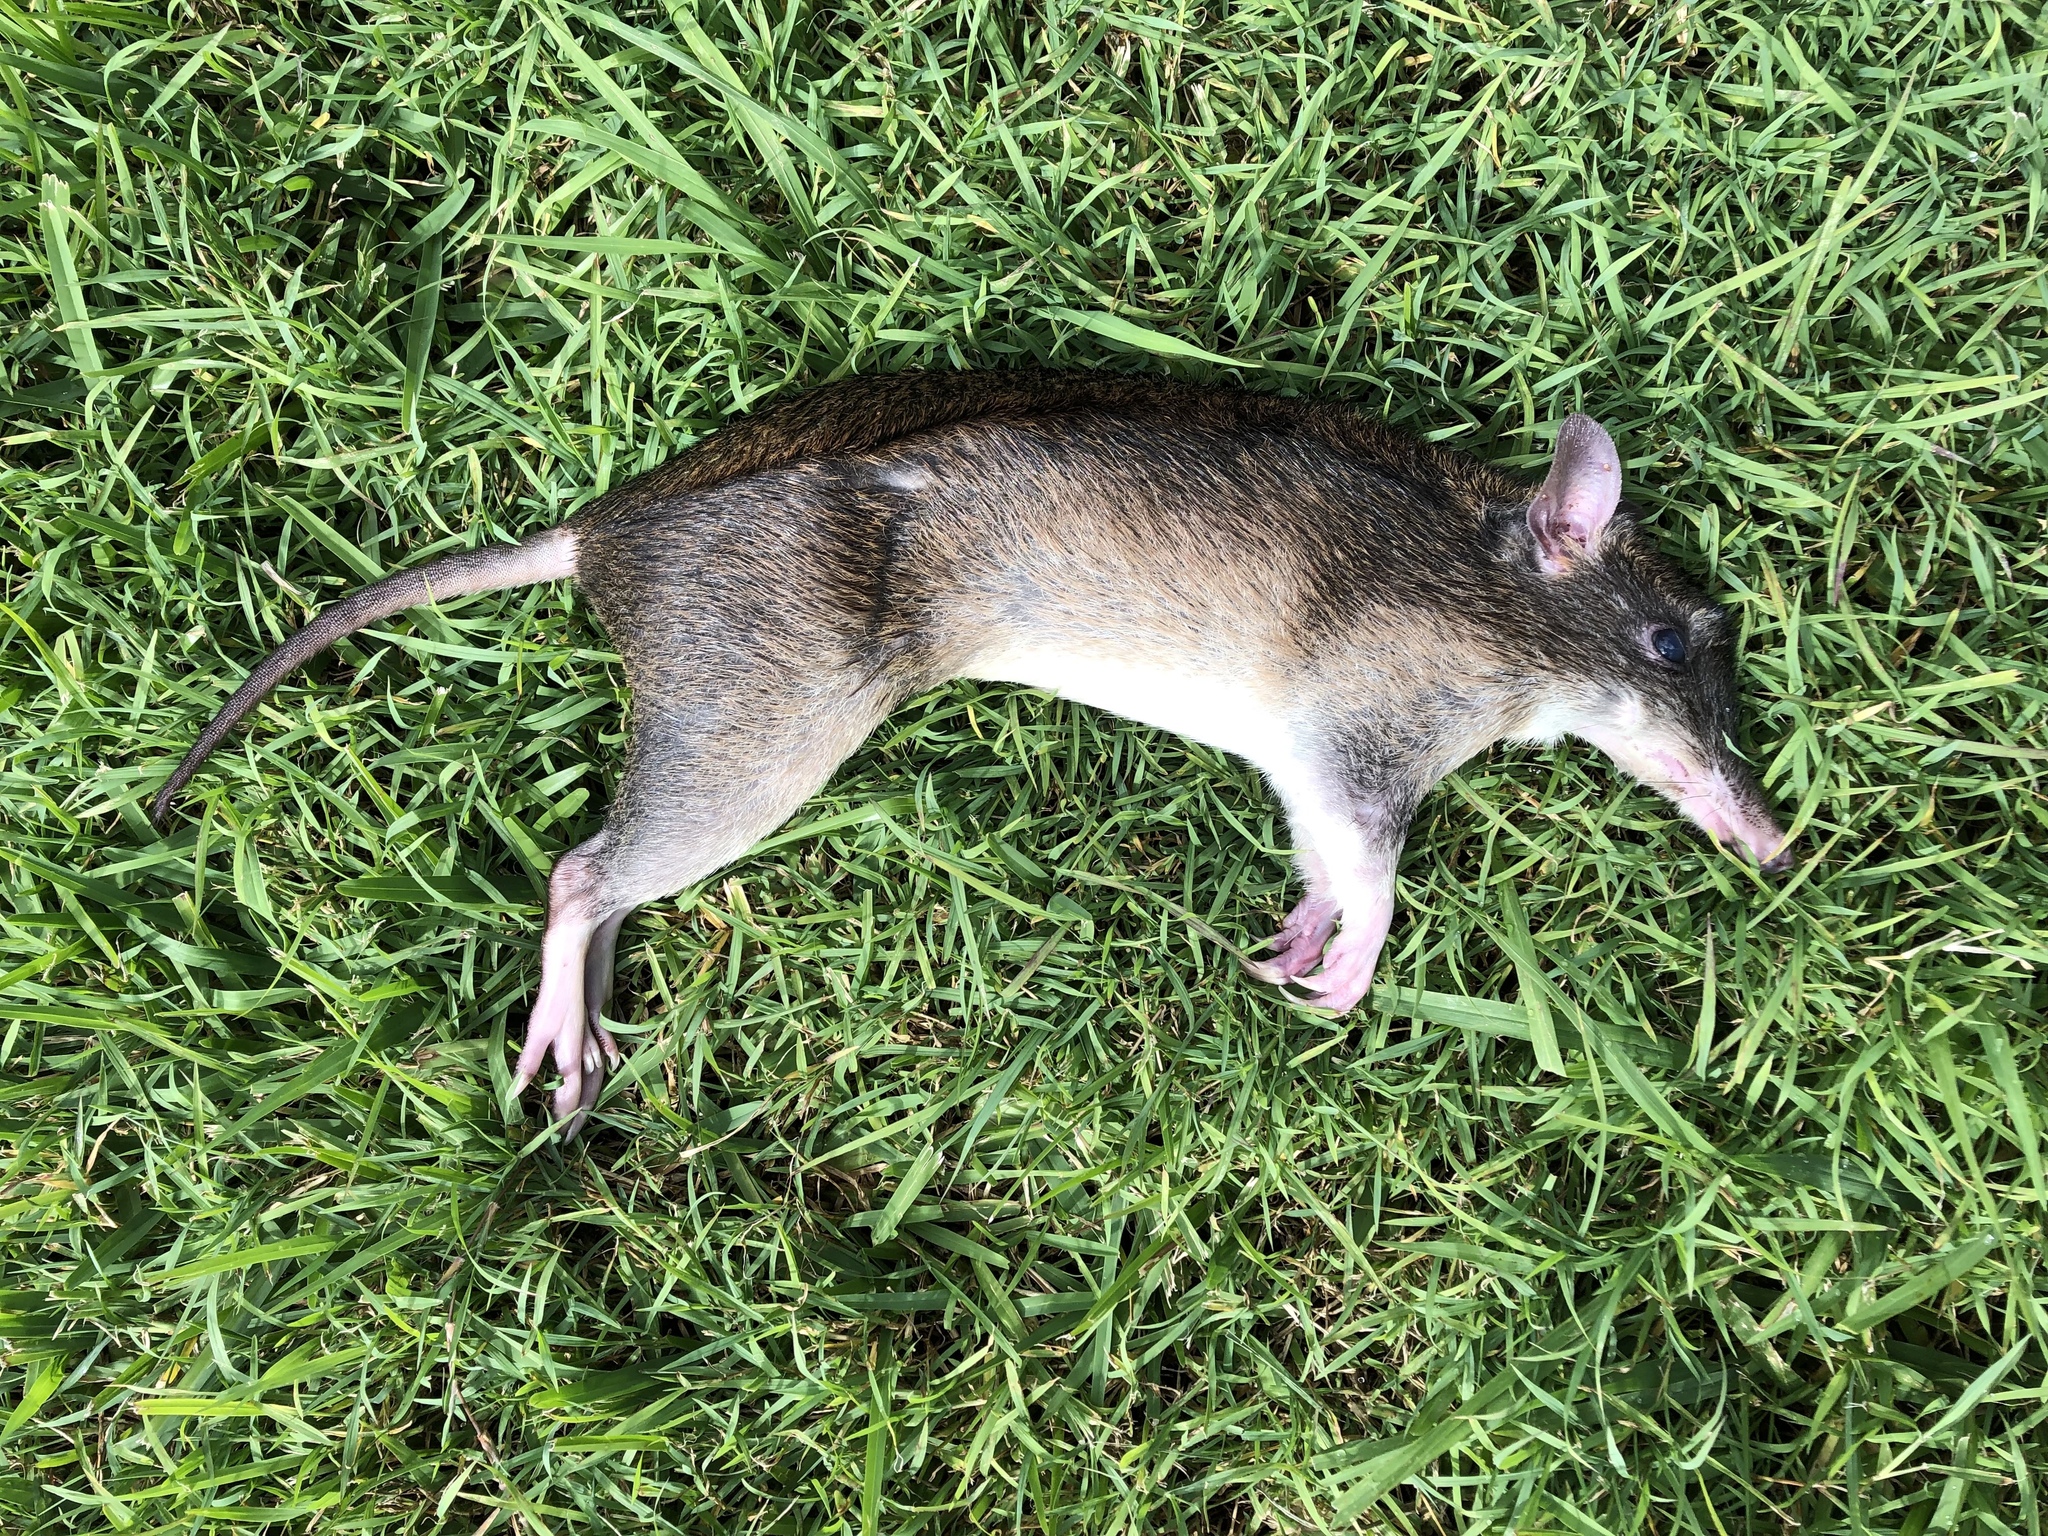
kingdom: Animalia
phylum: Chordata
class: Mammalia
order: Peramelemorphia
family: Peramelidae
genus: Perameles
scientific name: Perameles nasuta
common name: Long-nosed bandicoot
